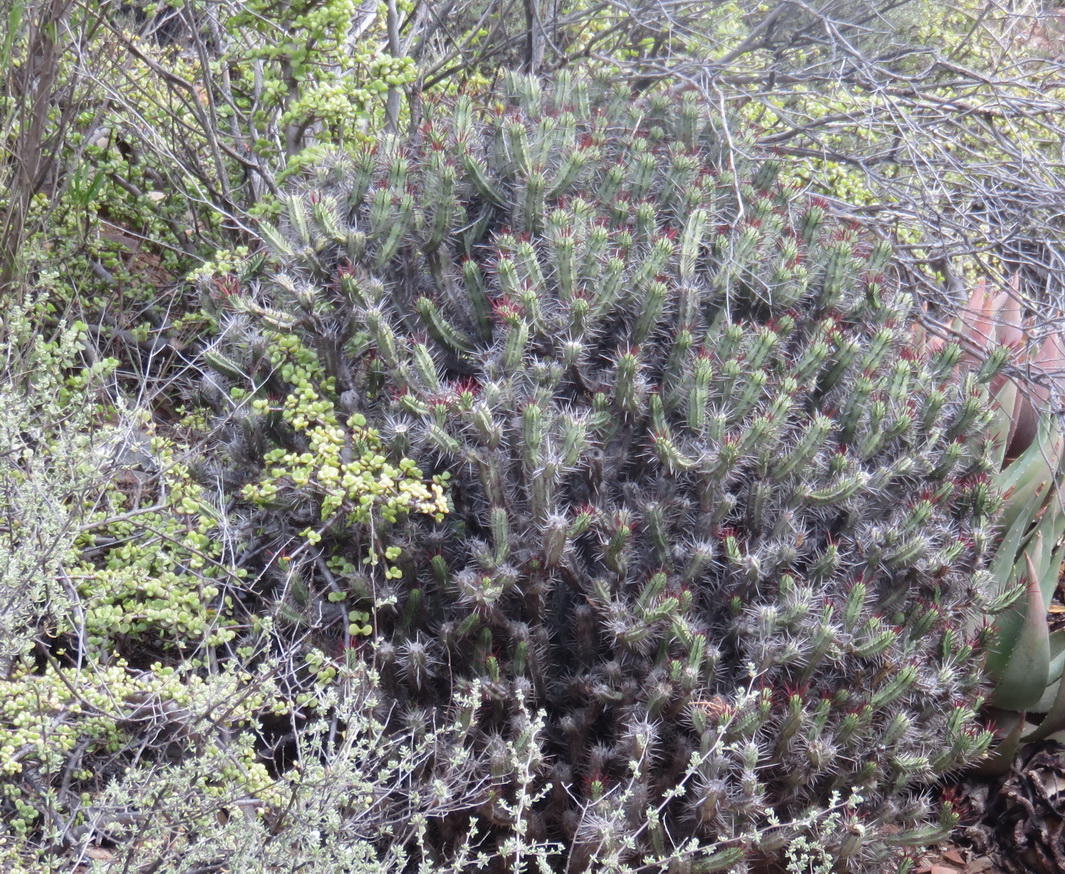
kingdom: Plantae
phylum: Tracheophyta
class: Magnoliopsida
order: Malpighiales
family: Euphorbiaceae
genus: Euphorbia
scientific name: Euphorbia heptagona
